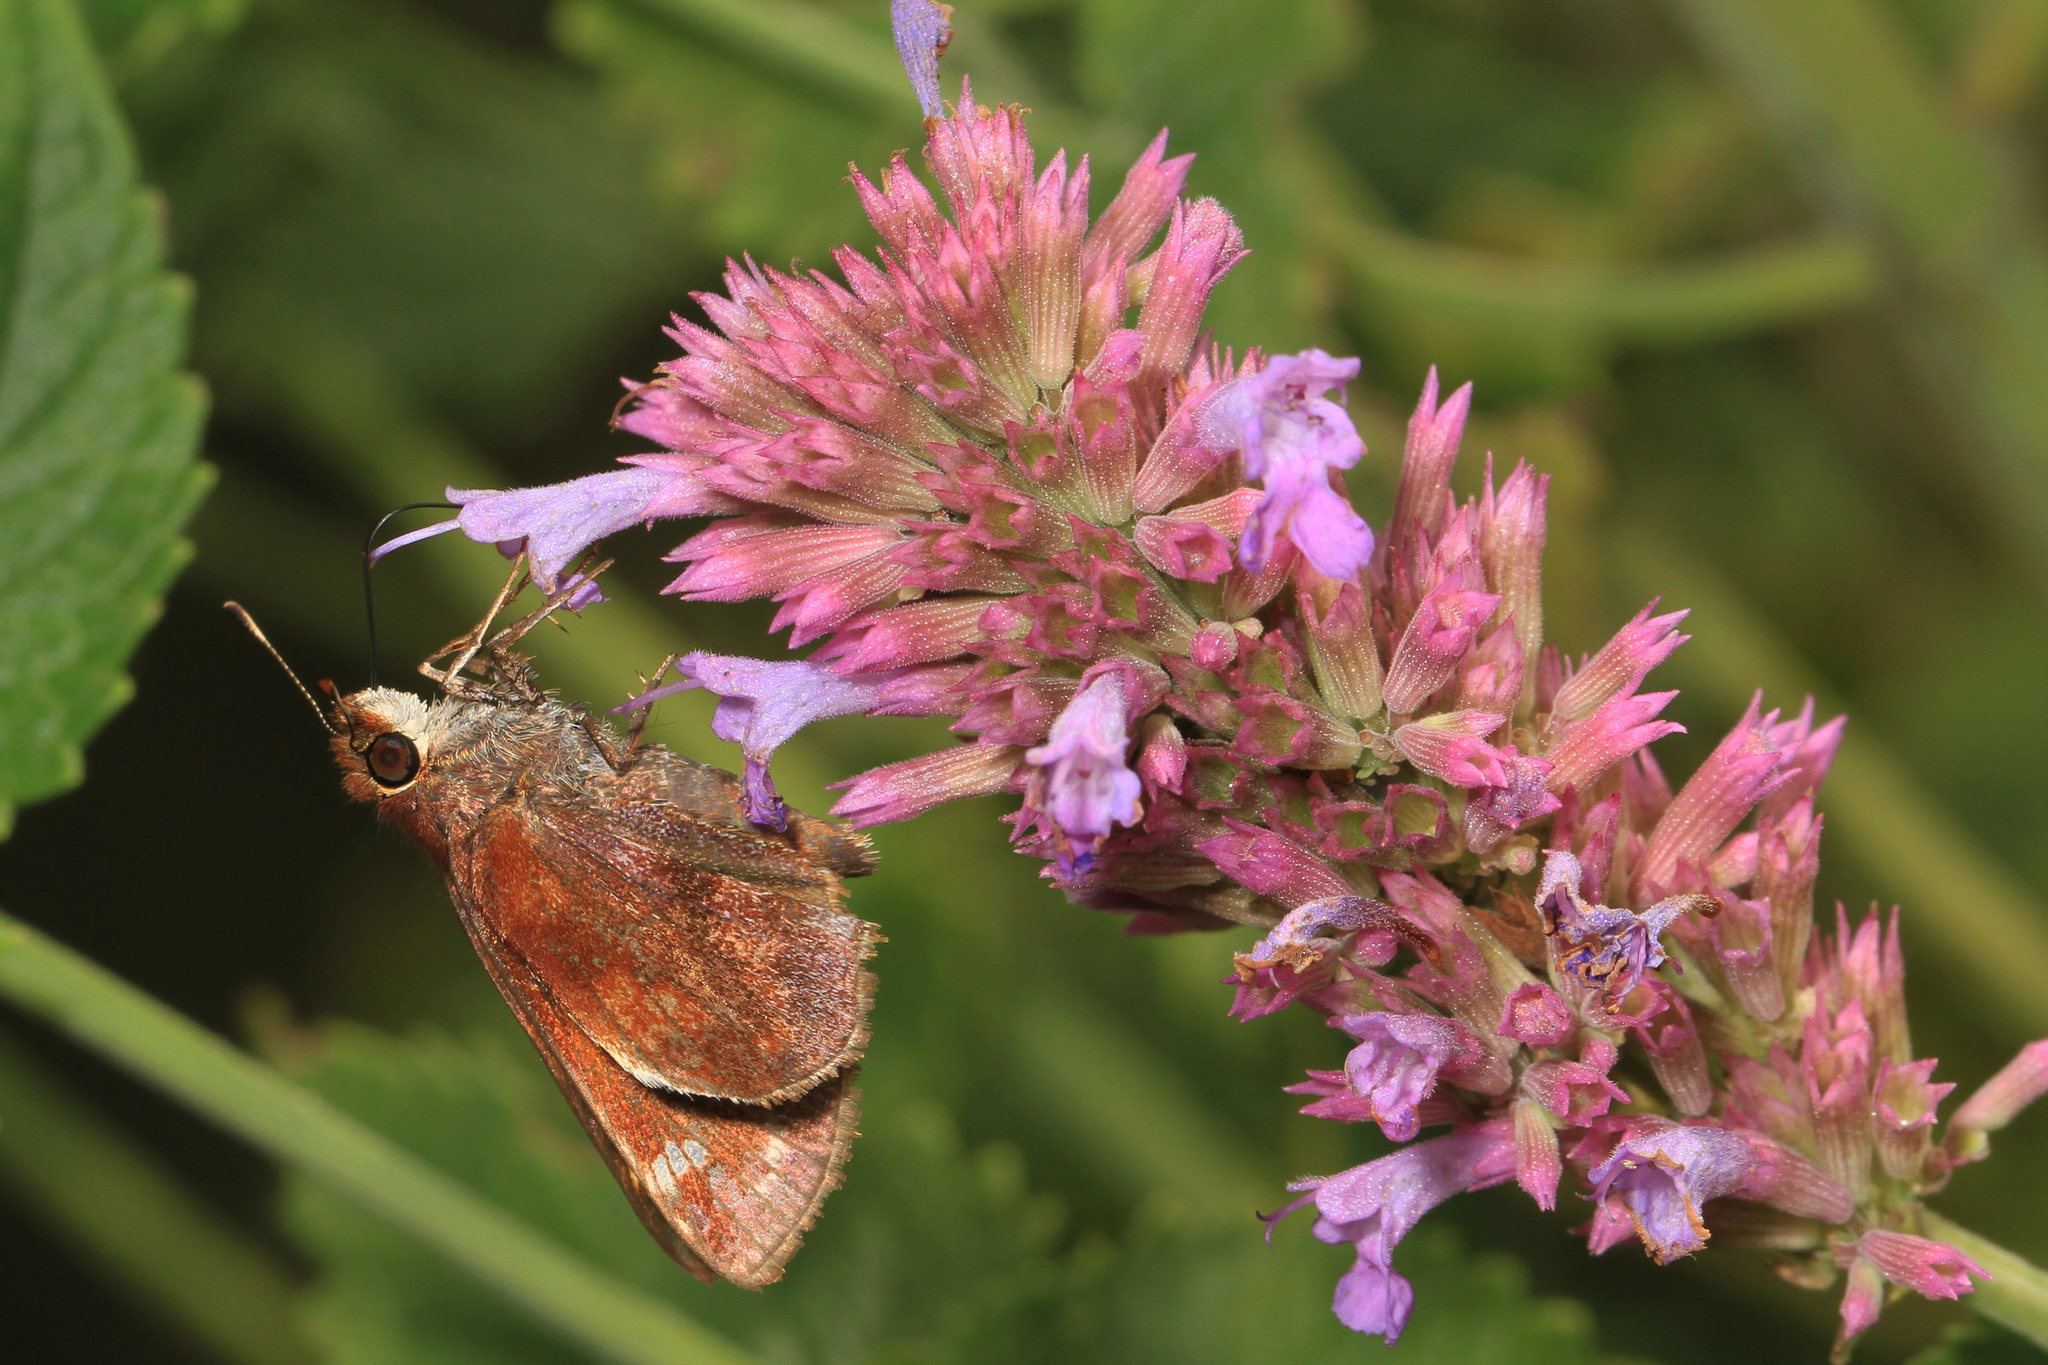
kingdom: Animalia
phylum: Arthropoda
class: Insecta
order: Lepidoptera
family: Hesperiidae
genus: Lon
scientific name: Lon zabulon
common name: Zabulon skipper
